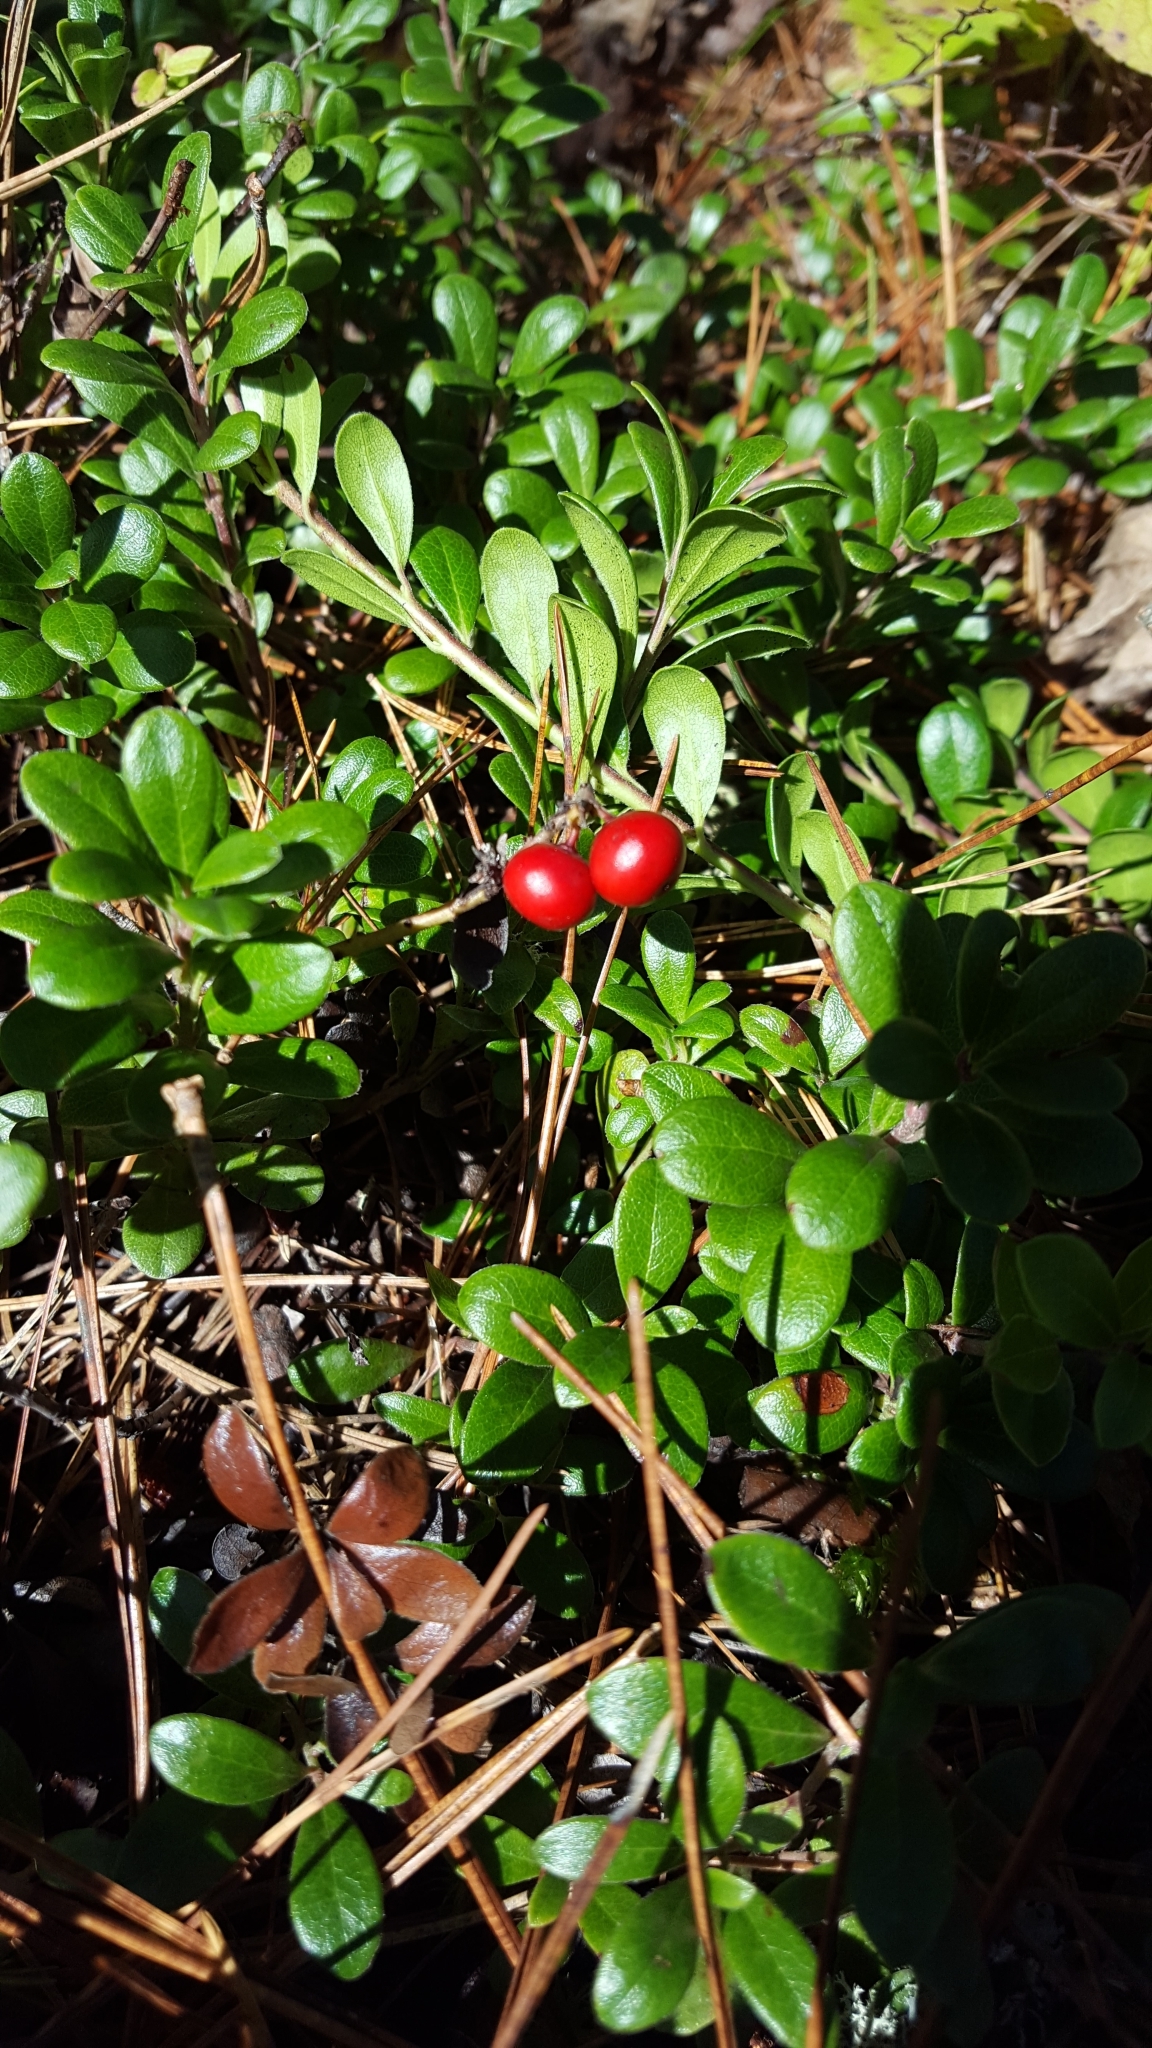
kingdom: Plantae
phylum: Tracheophyta
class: Magnoliopsida
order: Ericales
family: Ericaceae
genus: Arctostaphylos
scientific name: Arctostaphylos uva-ursi
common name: Bearberry
